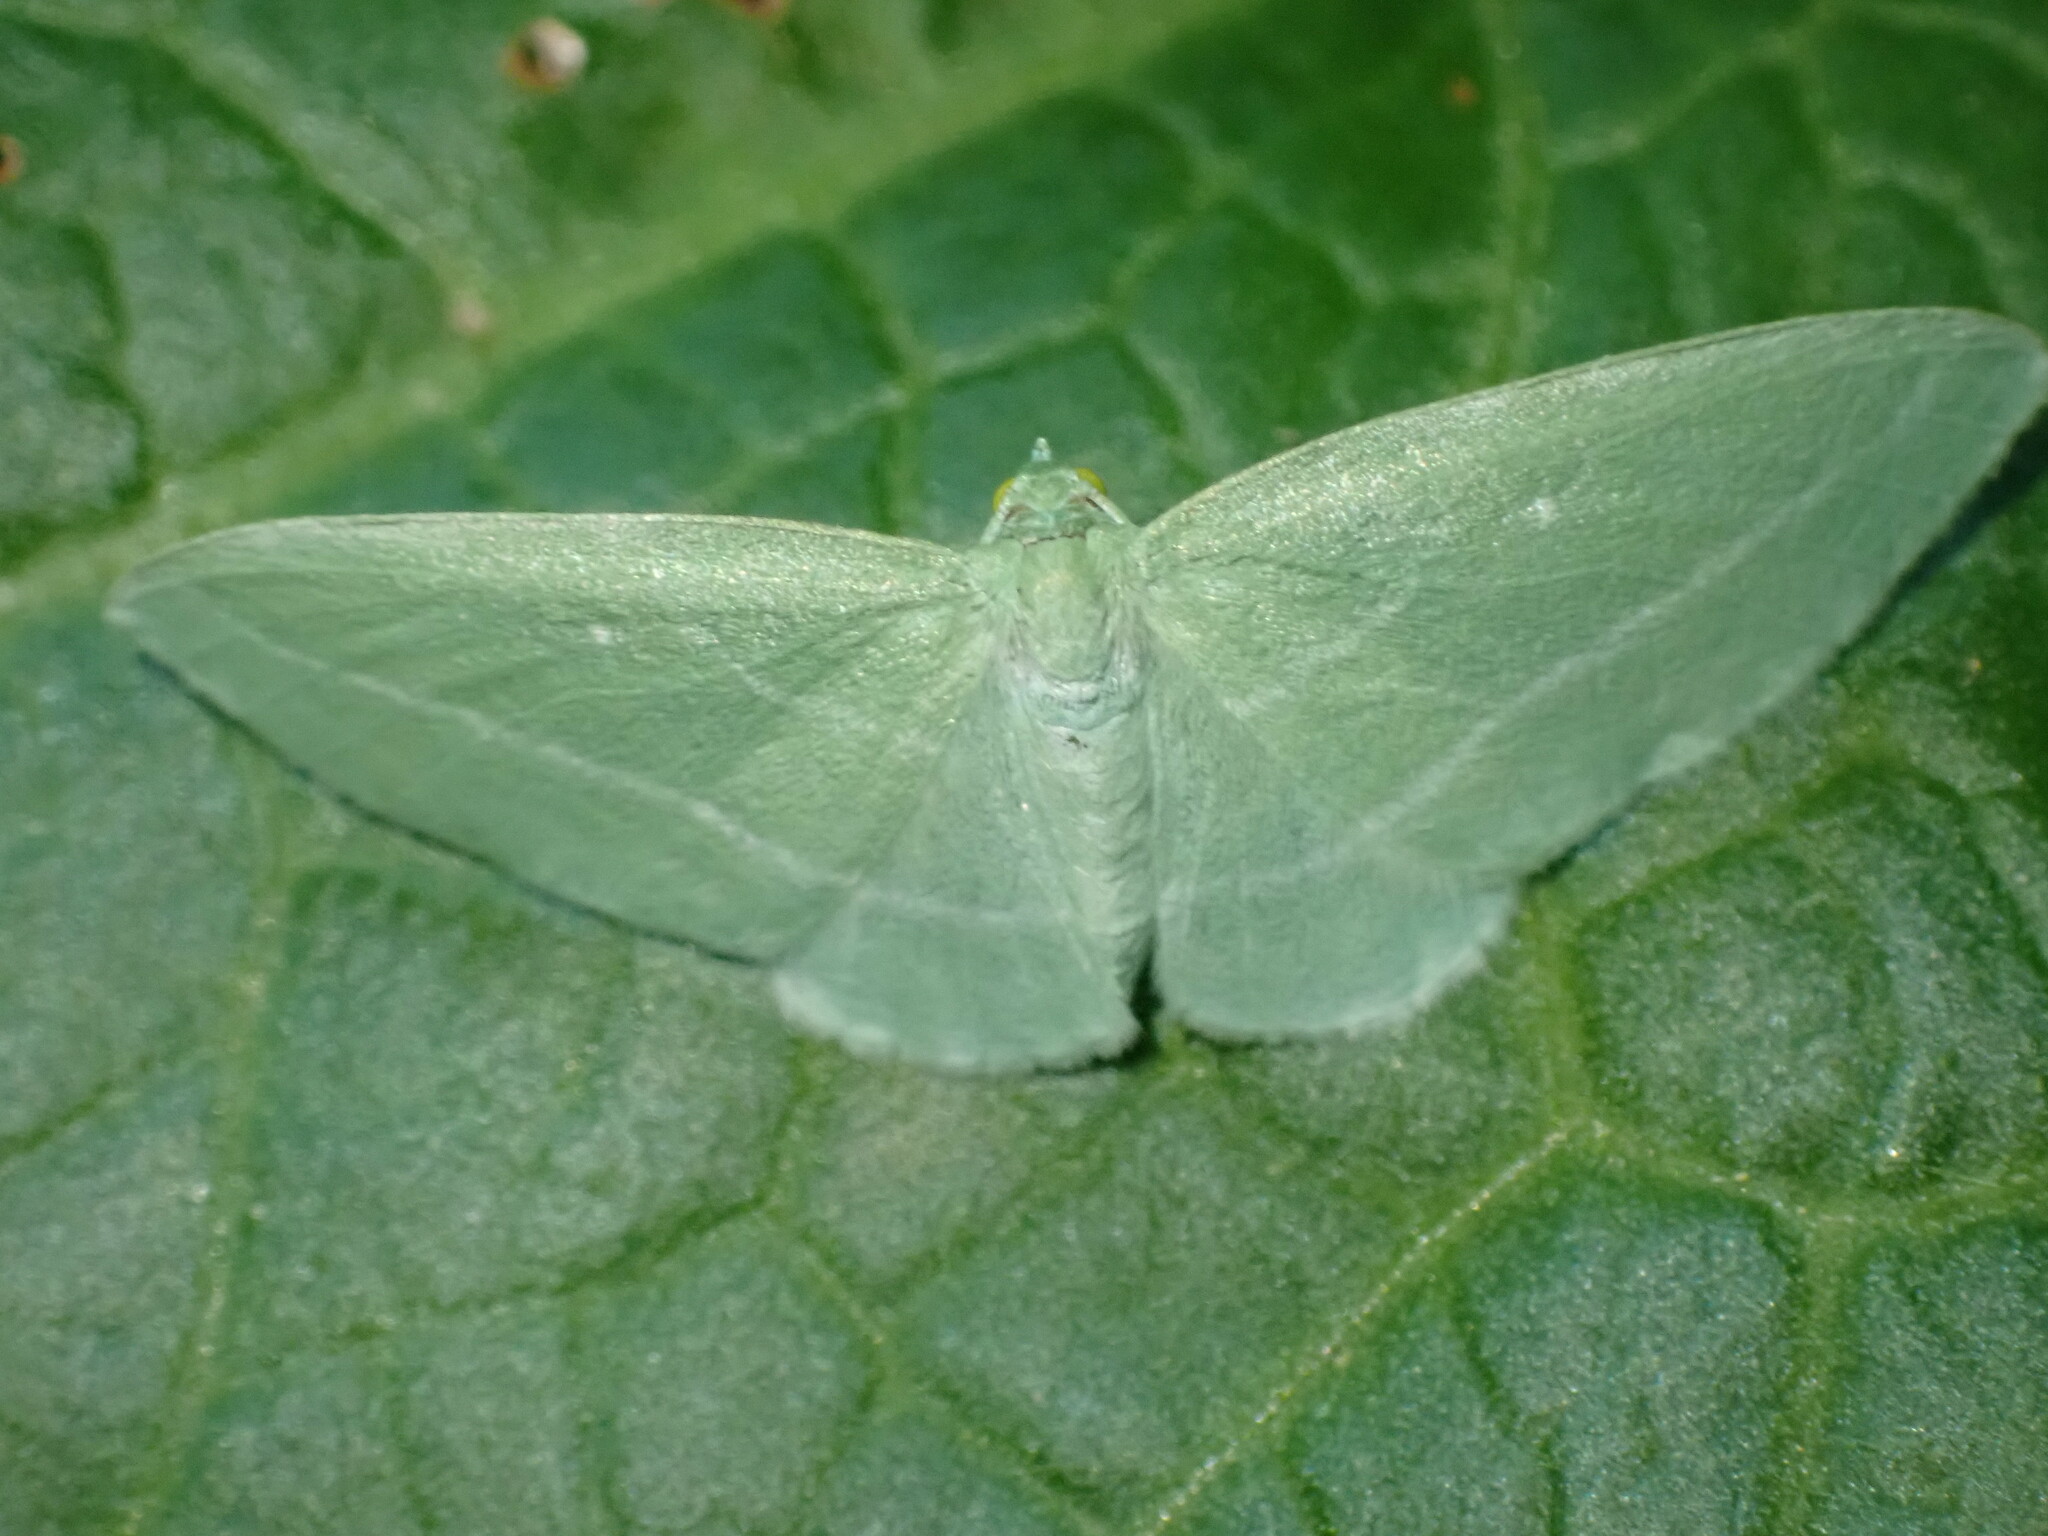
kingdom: Animalia
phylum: Arthropoda
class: Insecta
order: Lepidoptera
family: Geometridae
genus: Dyspteris
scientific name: Dyspteris abortivaria
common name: Bad-wing
